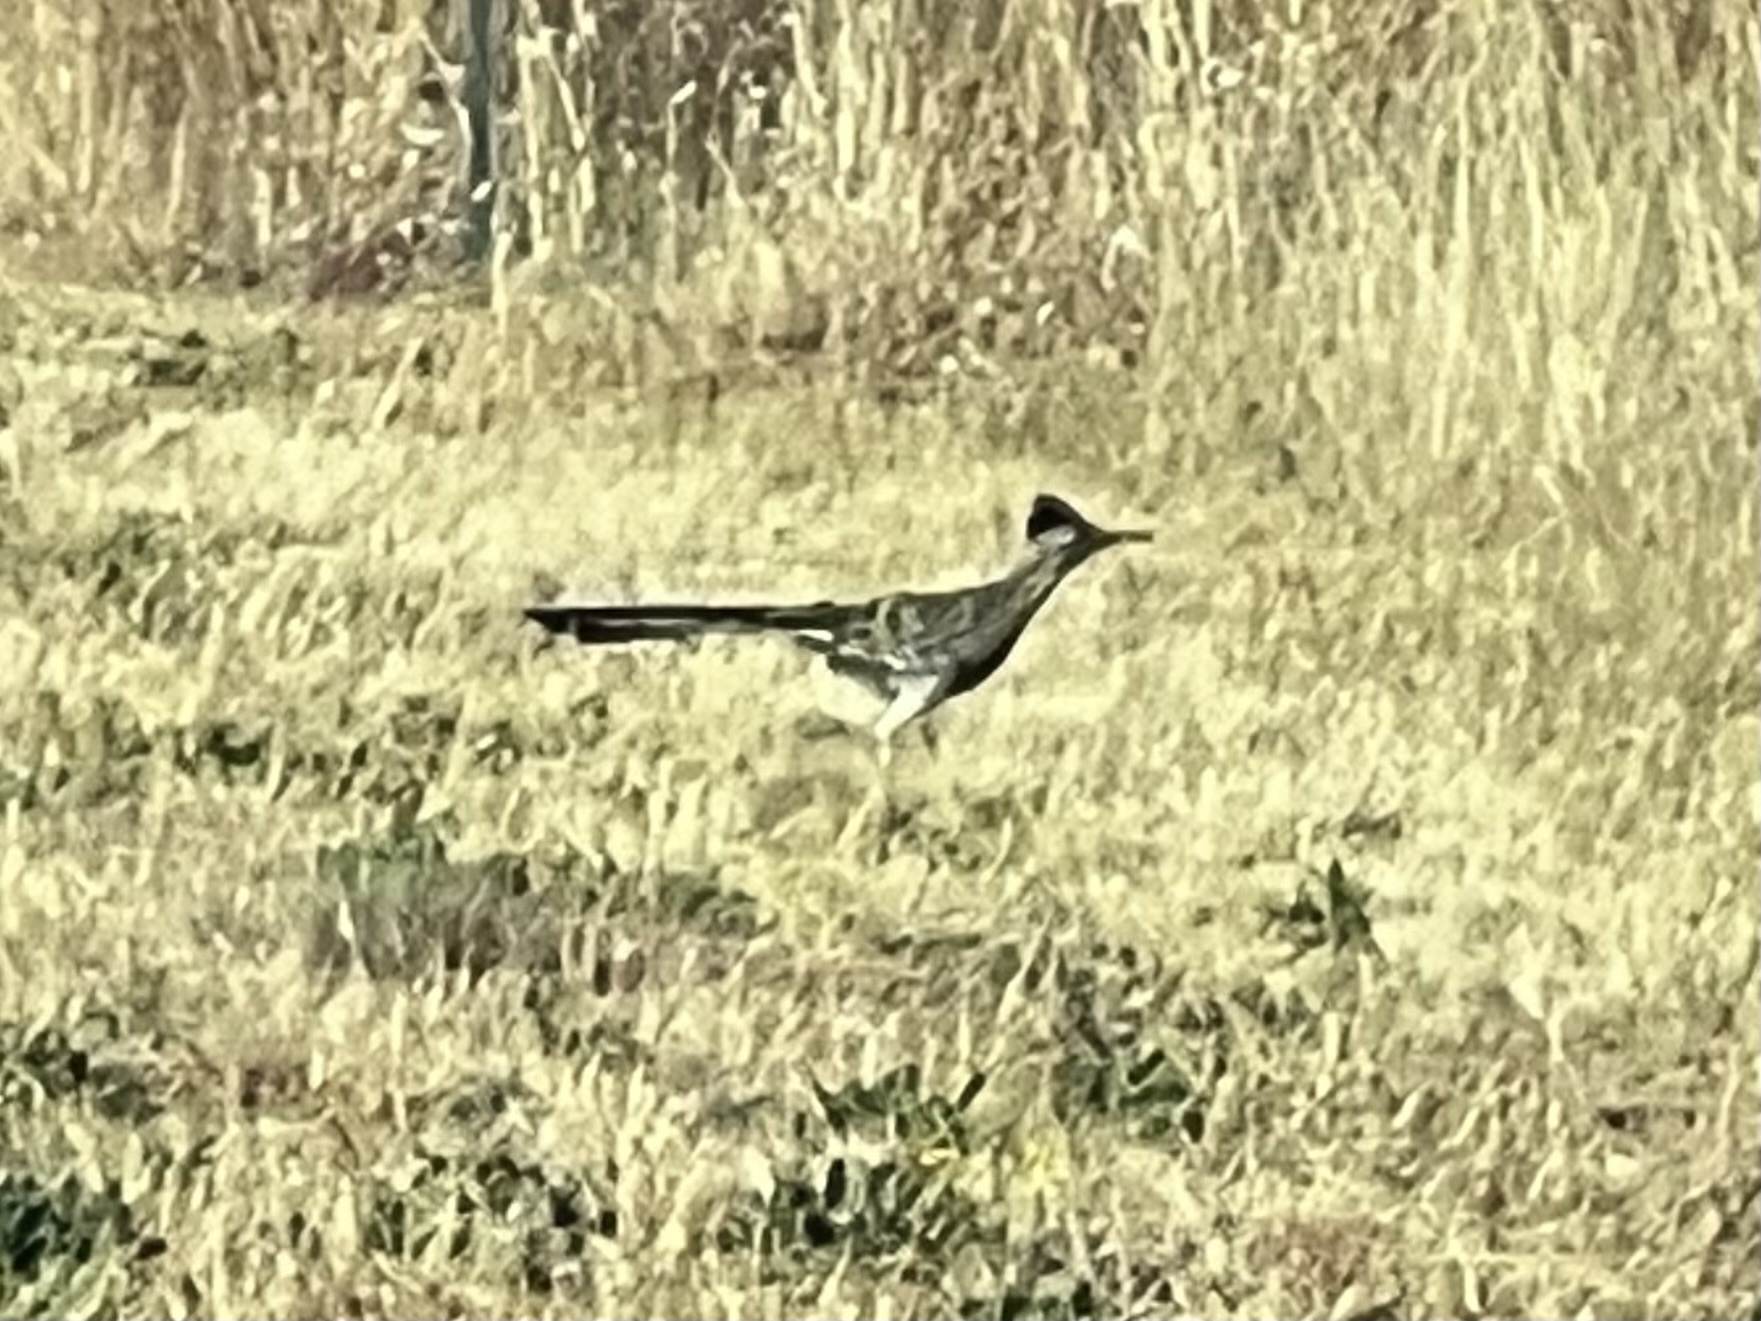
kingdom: Animalia
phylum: Chordata
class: Aves
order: Cuculiformes
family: Cuculidae
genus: Geococcyx
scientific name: Geococcyx californianus
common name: Greater roadrunner
